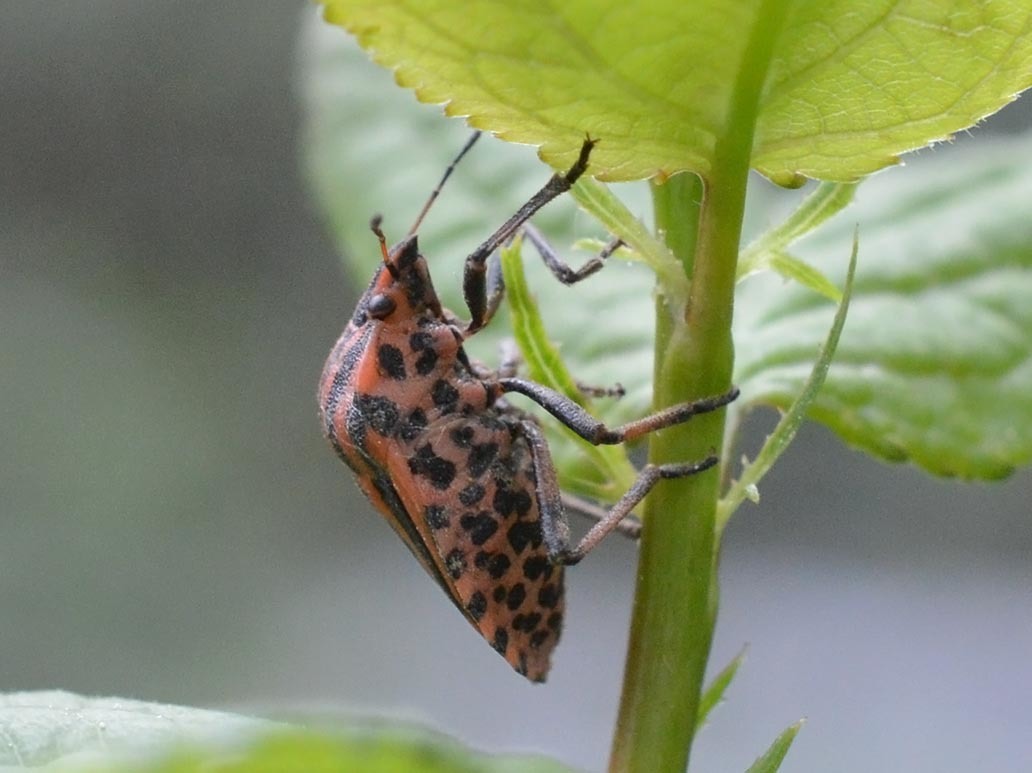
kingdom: Animalia
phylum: Arthropoda
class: Insecta
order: Hemiptera
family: Pentatomidae
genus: Graphosoma
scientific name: Graphosoma italicum
